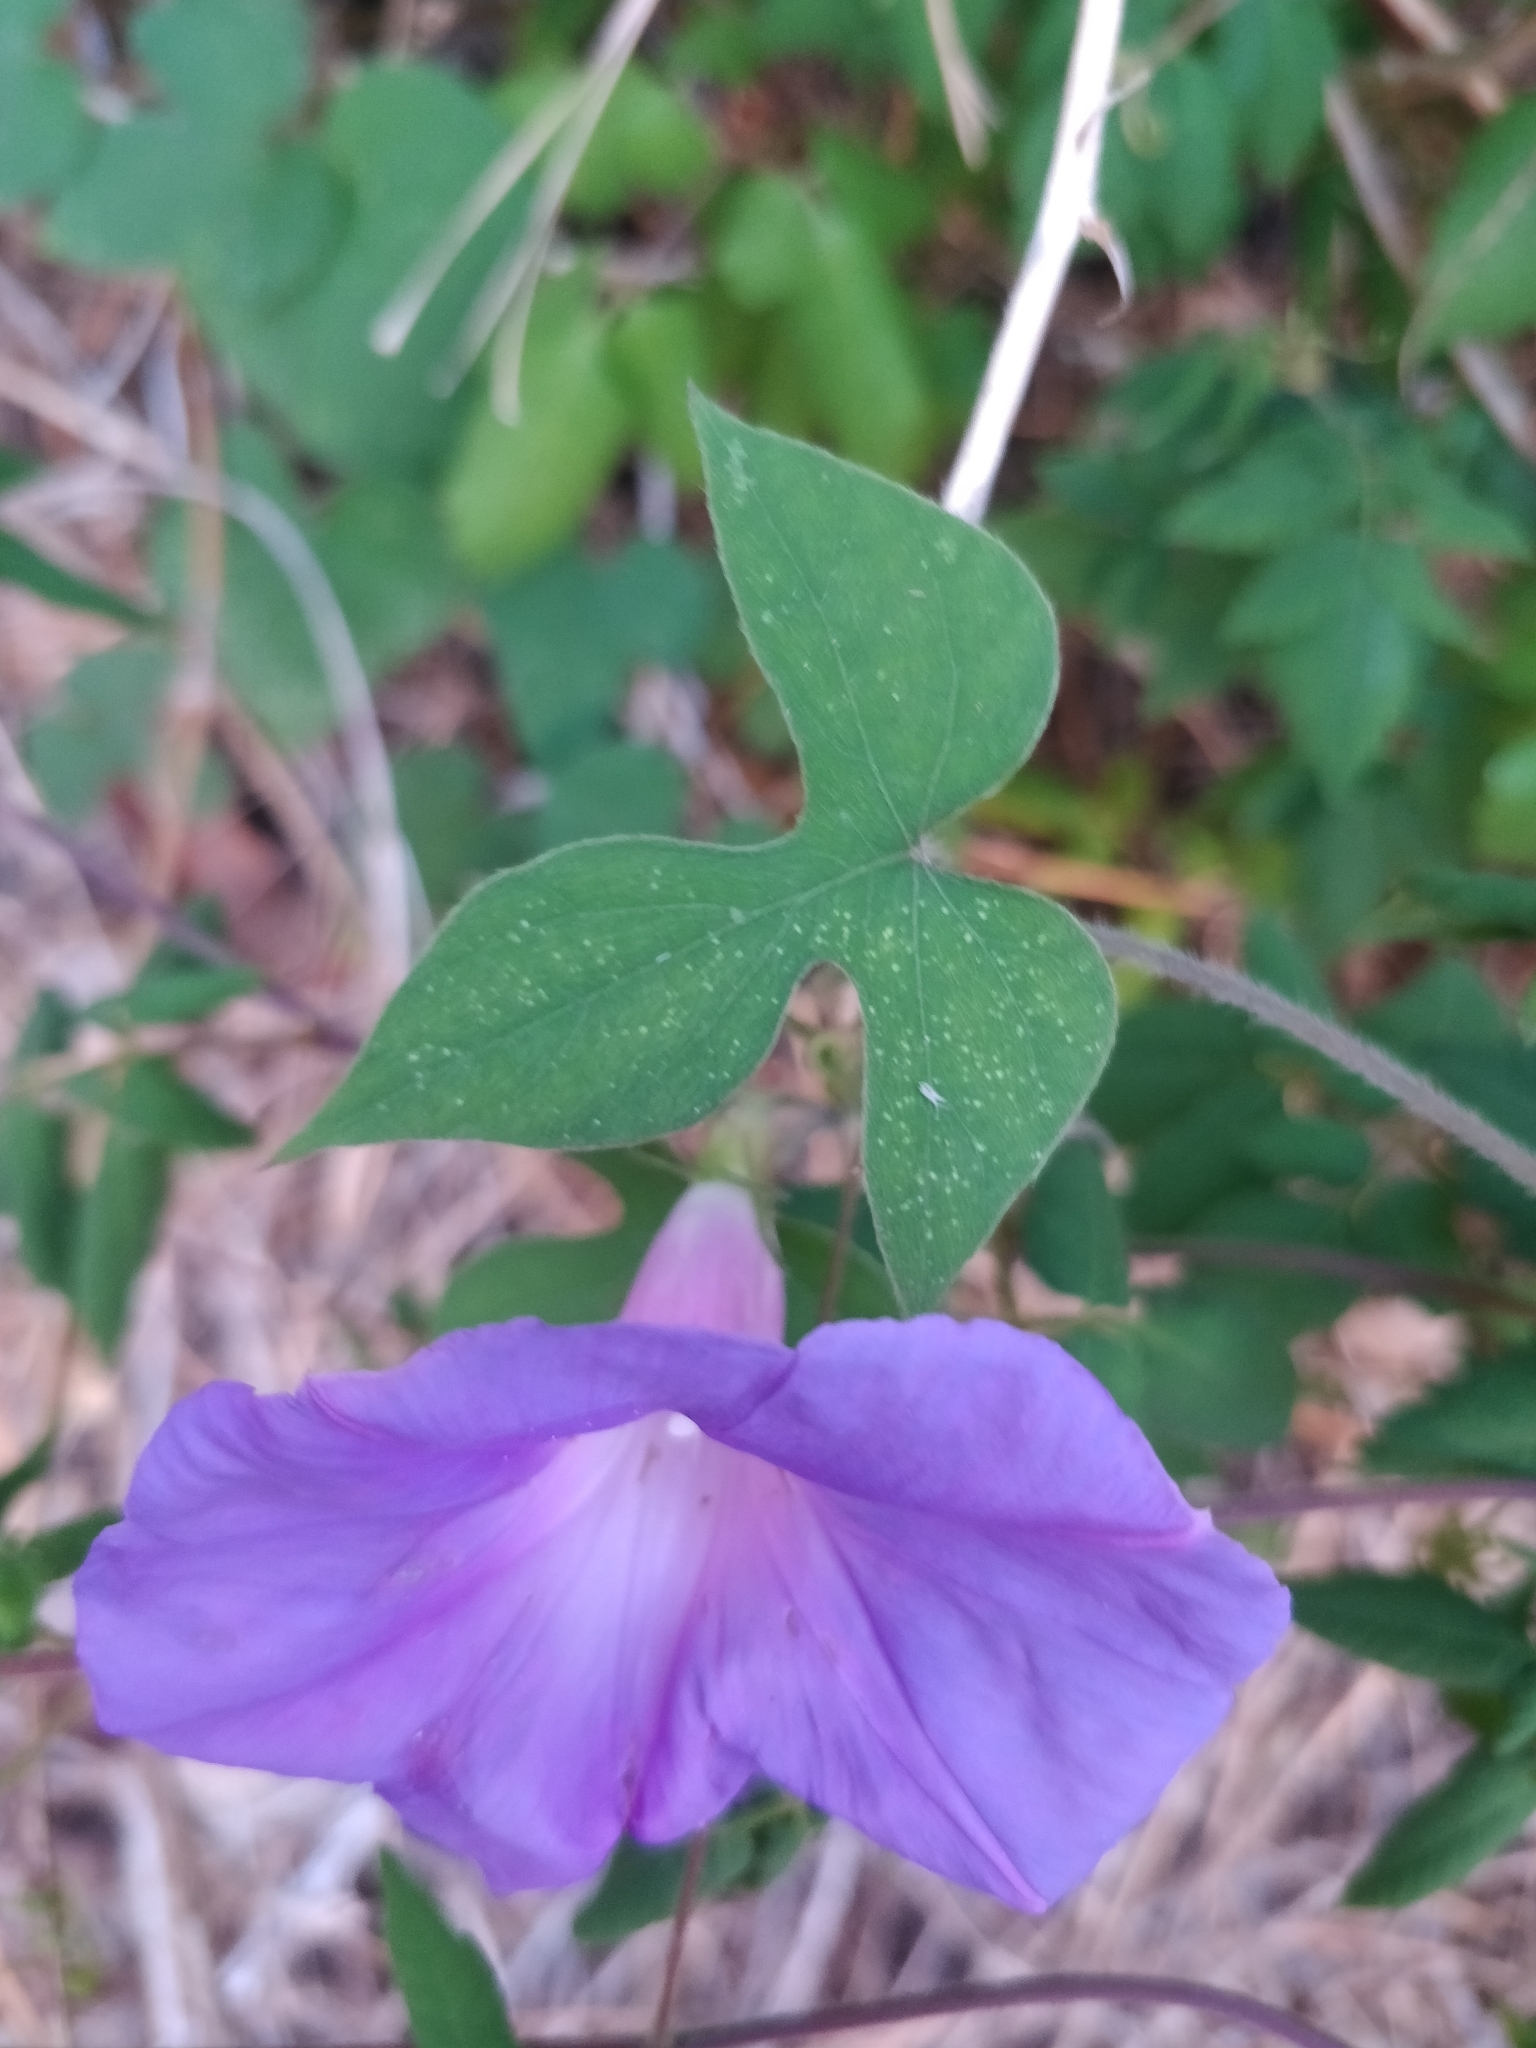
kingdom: Plantae
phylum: Tracheophyta
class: Magnoliopsida
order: Solanales
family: Convolvulaceae
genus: Ipomoea
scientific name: Ipomoea indica
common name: Blue dawnflower
